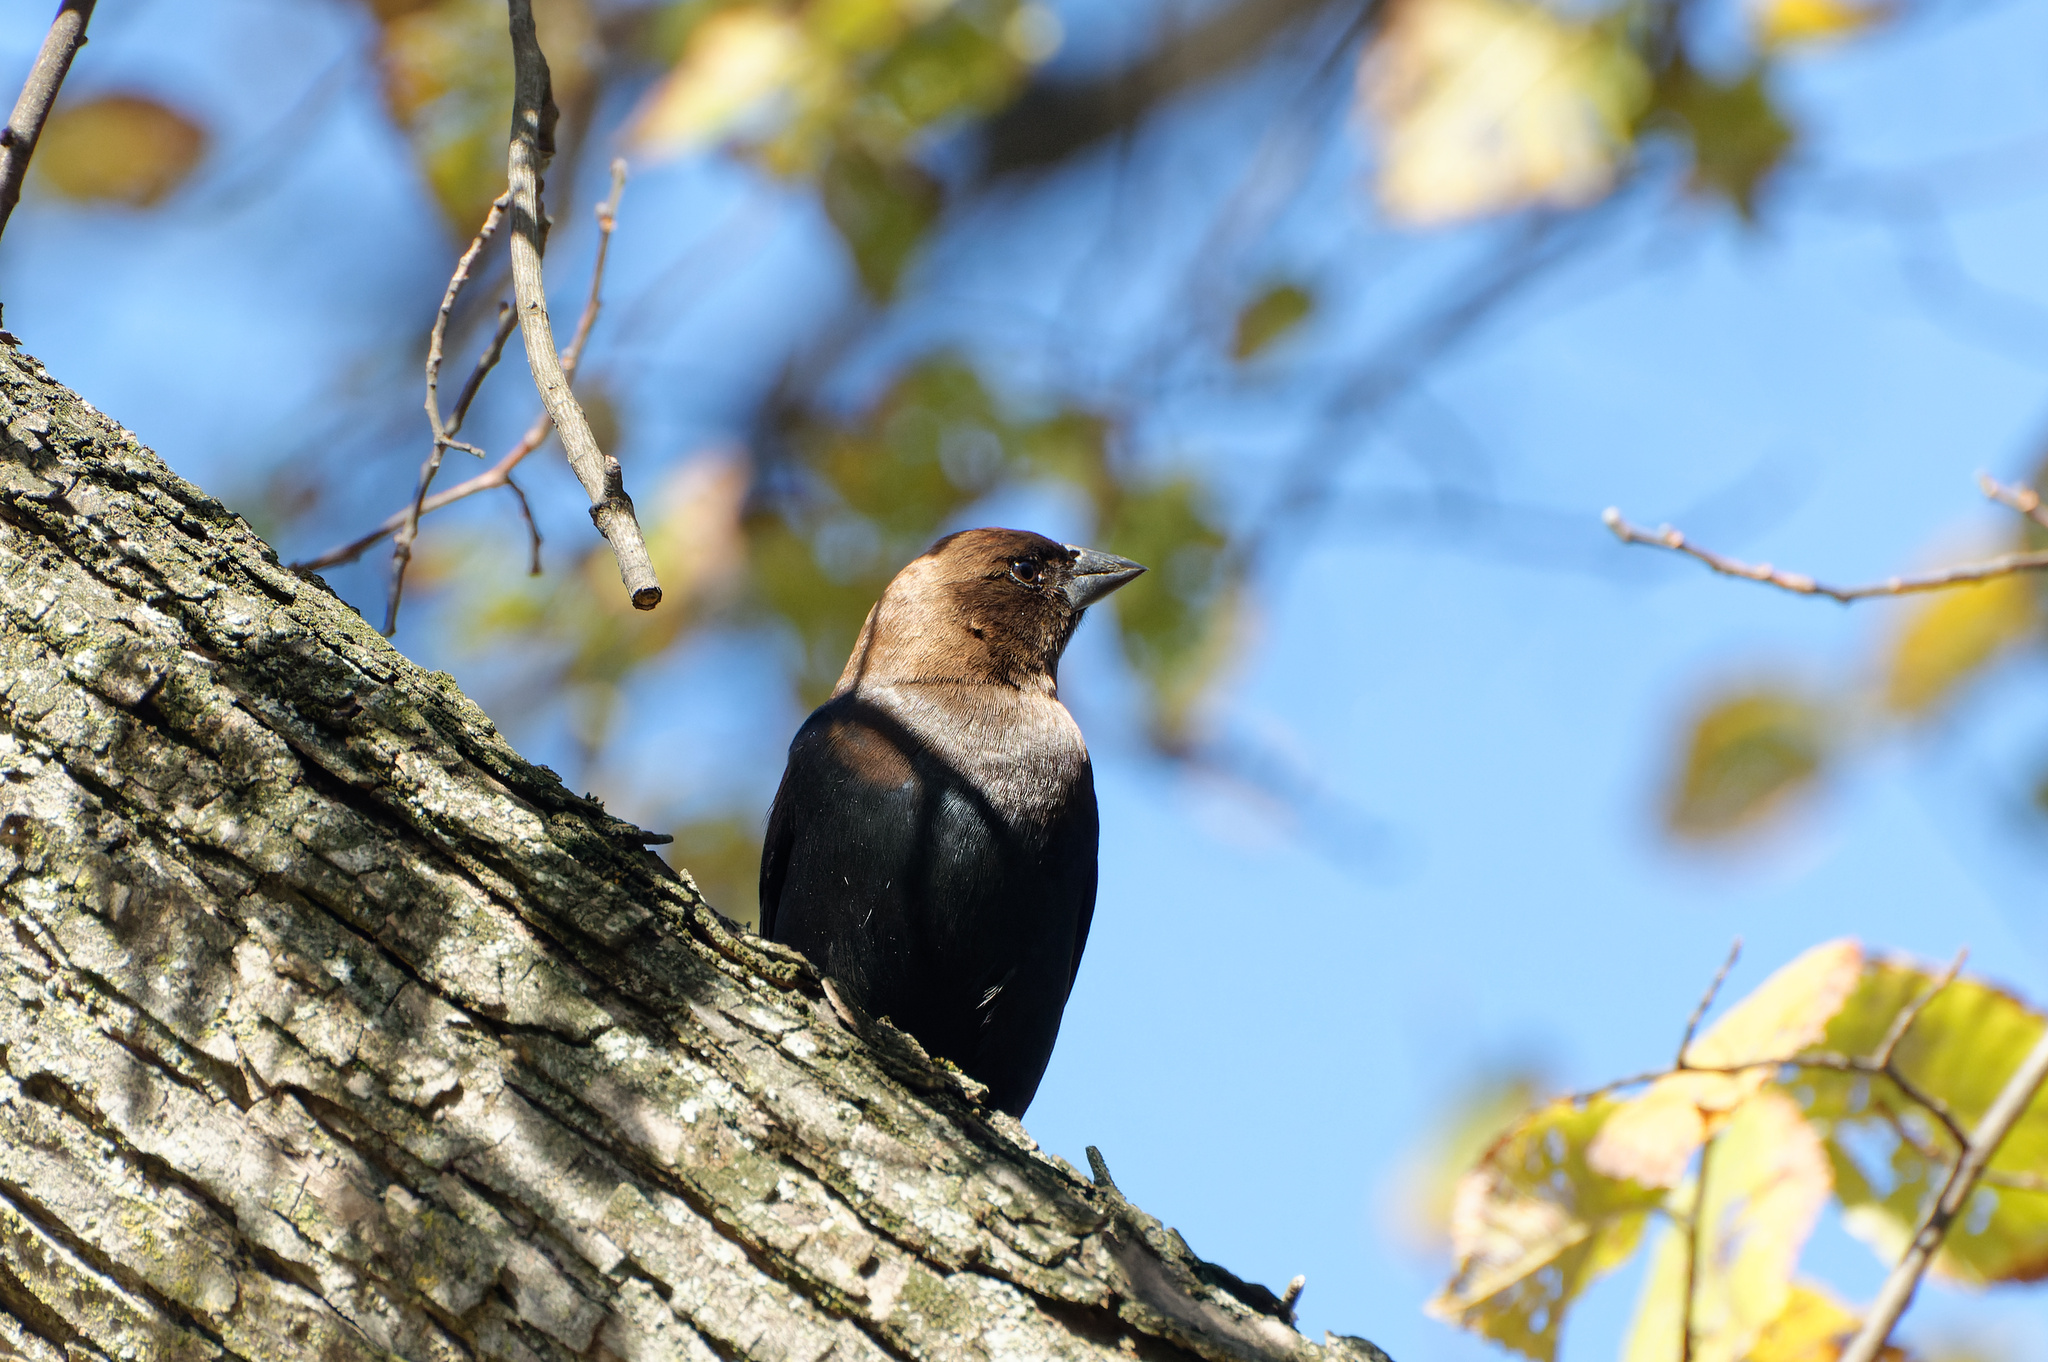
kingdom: Animalia
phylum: Chordata
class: Aves
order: Passeriformes
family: Icteridae
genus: Molothrus
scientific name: Molothrus ater
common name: Brown-headed cowbird
